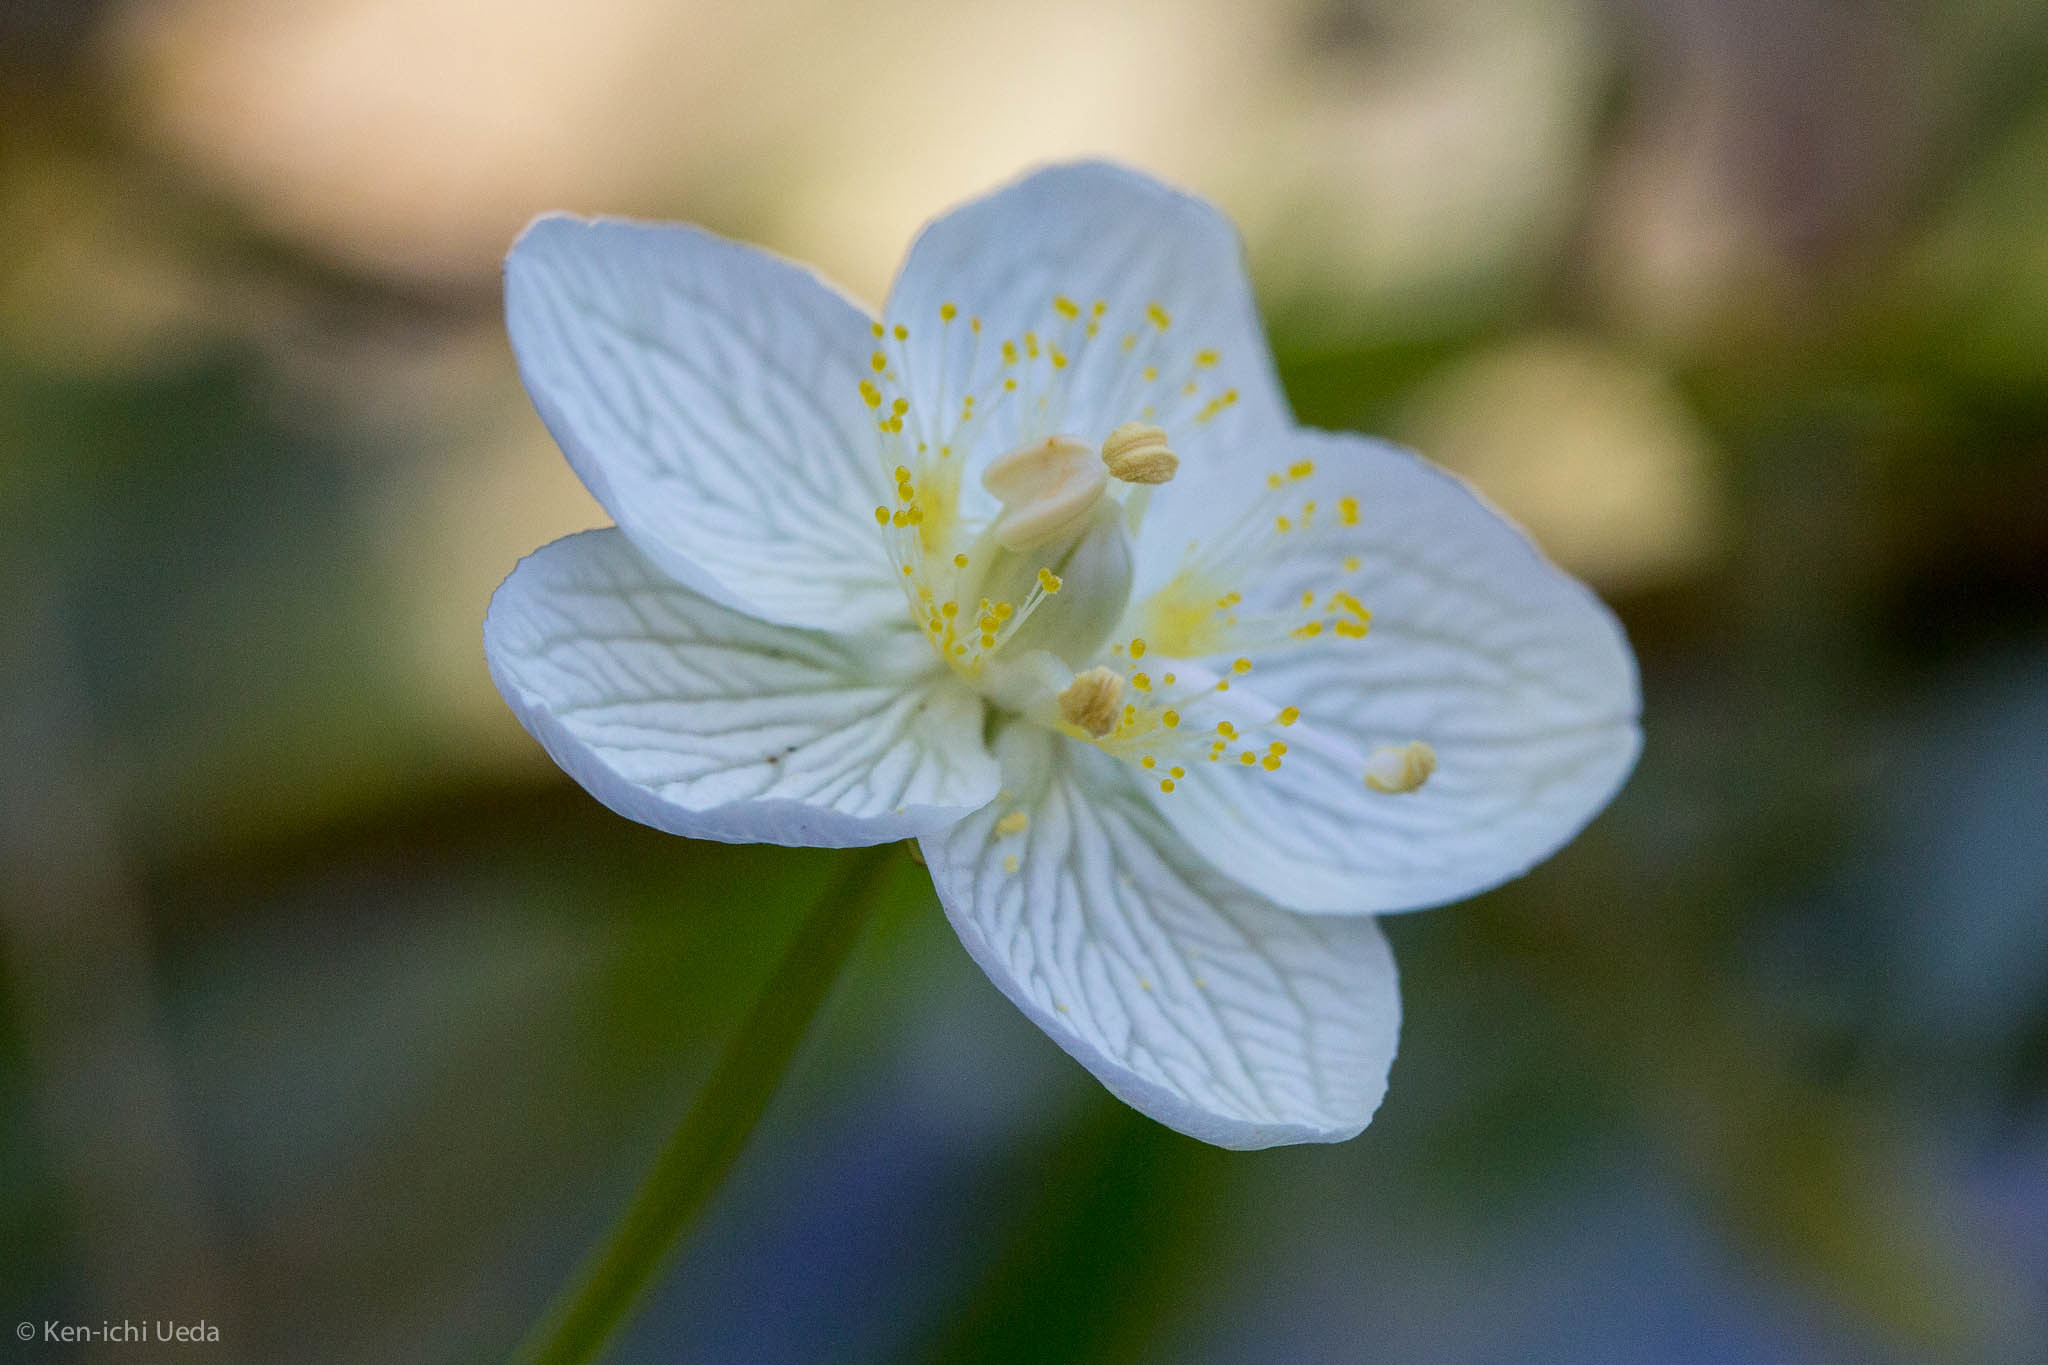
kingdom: Plantae
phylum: Tracheophyta
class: Magnoliopsida
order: Celastrales
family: Parnassiaceae
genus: Parnassia
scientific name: Parnassia palustris
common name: Grass-of-parnassus
